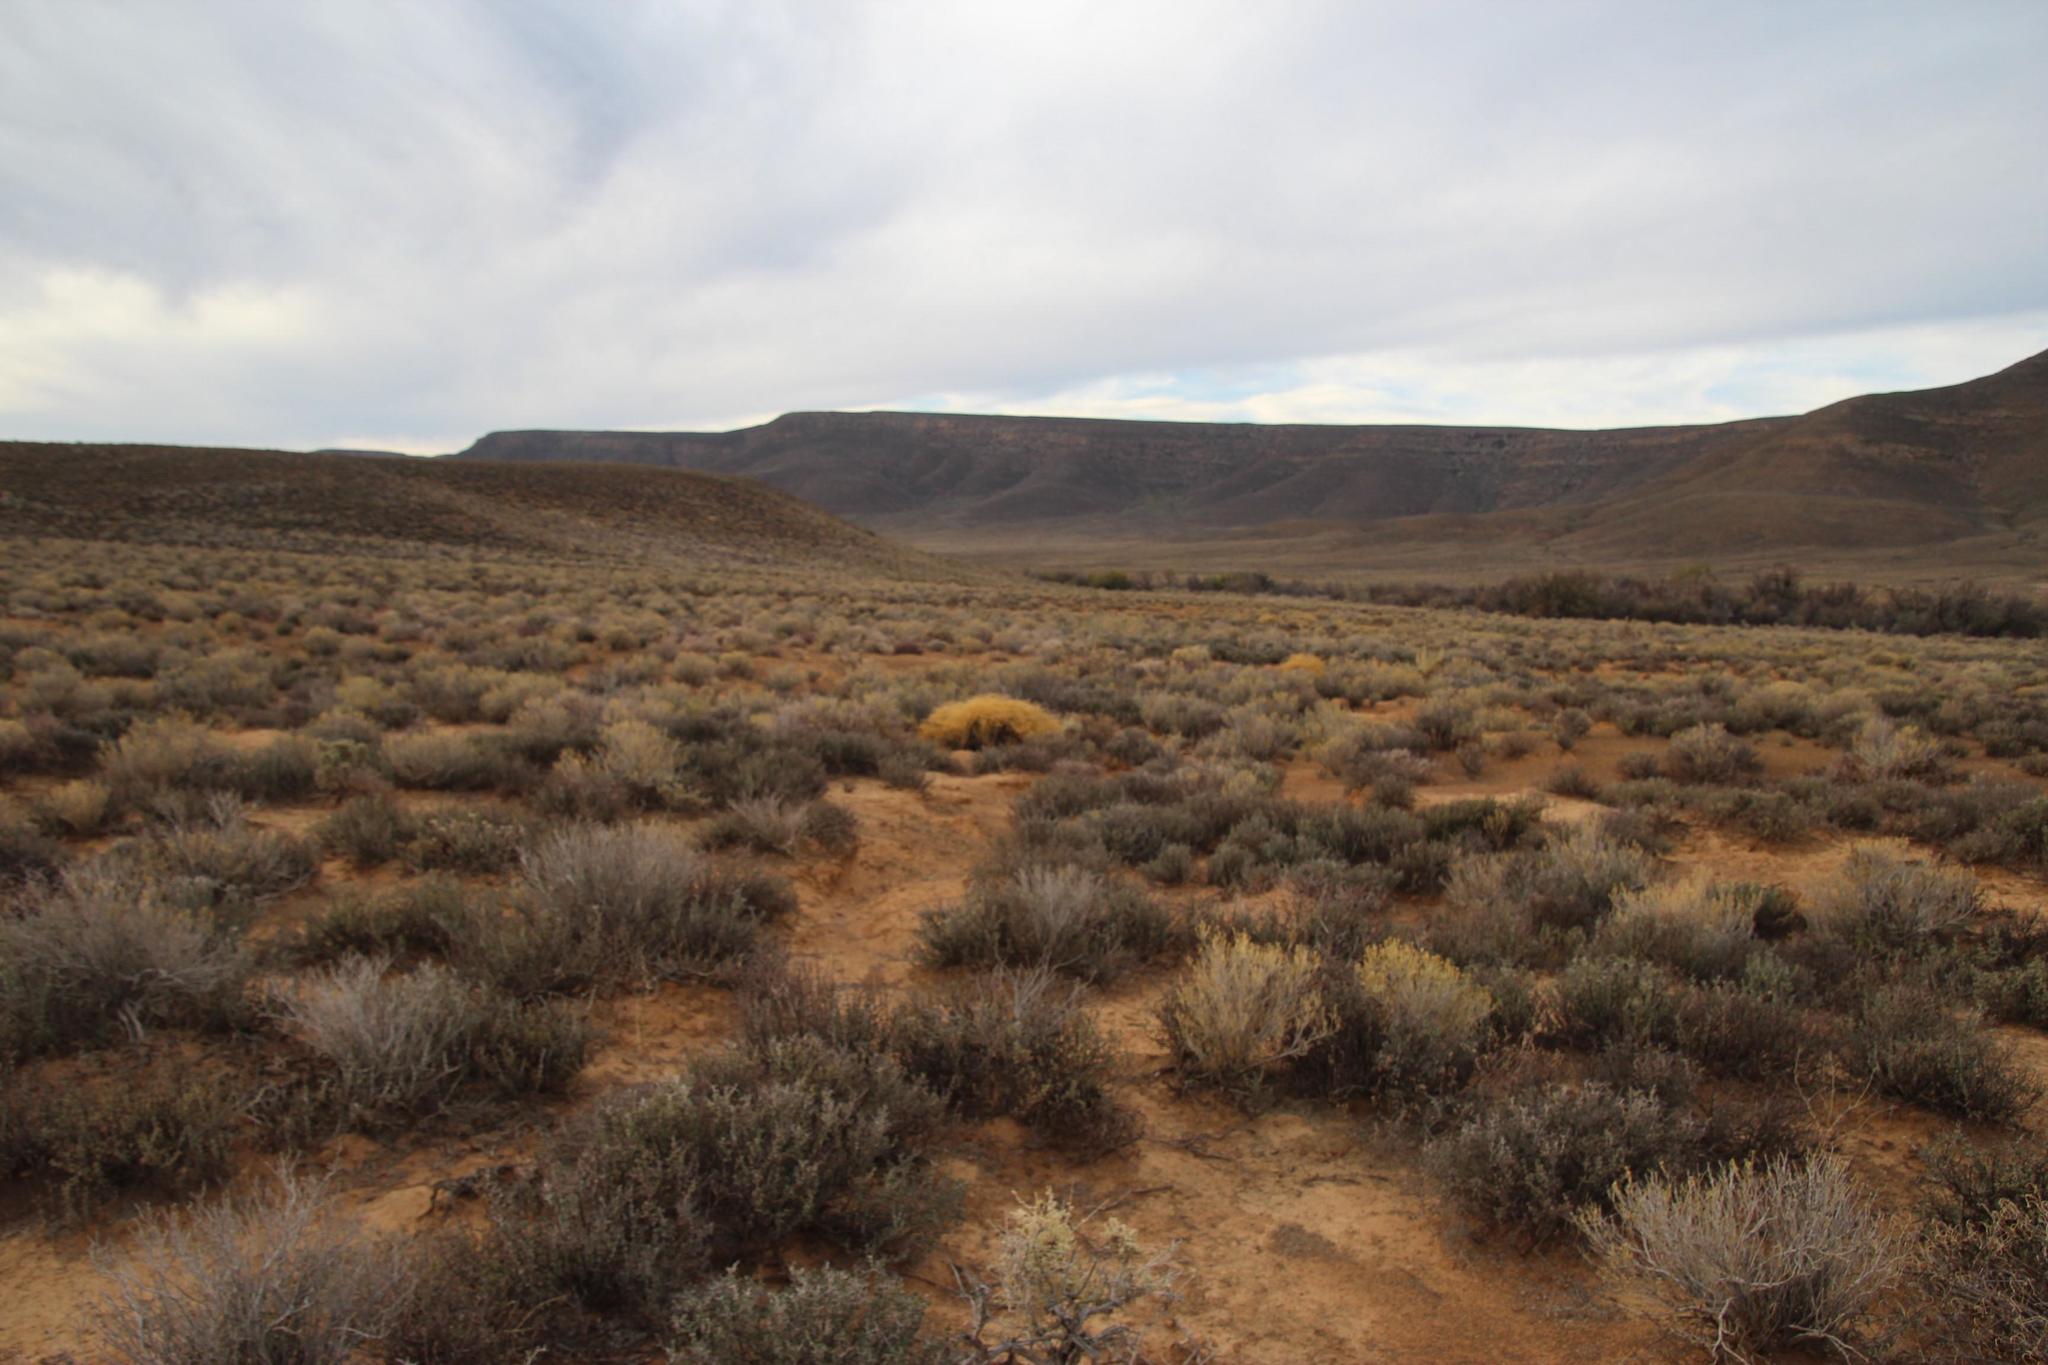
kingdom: Plantae
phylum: Tracheophyta
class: Magnoliopsida
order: Caryophyllales
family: Aizoaceae
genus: Aizoon
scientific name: Aizoon africanum
